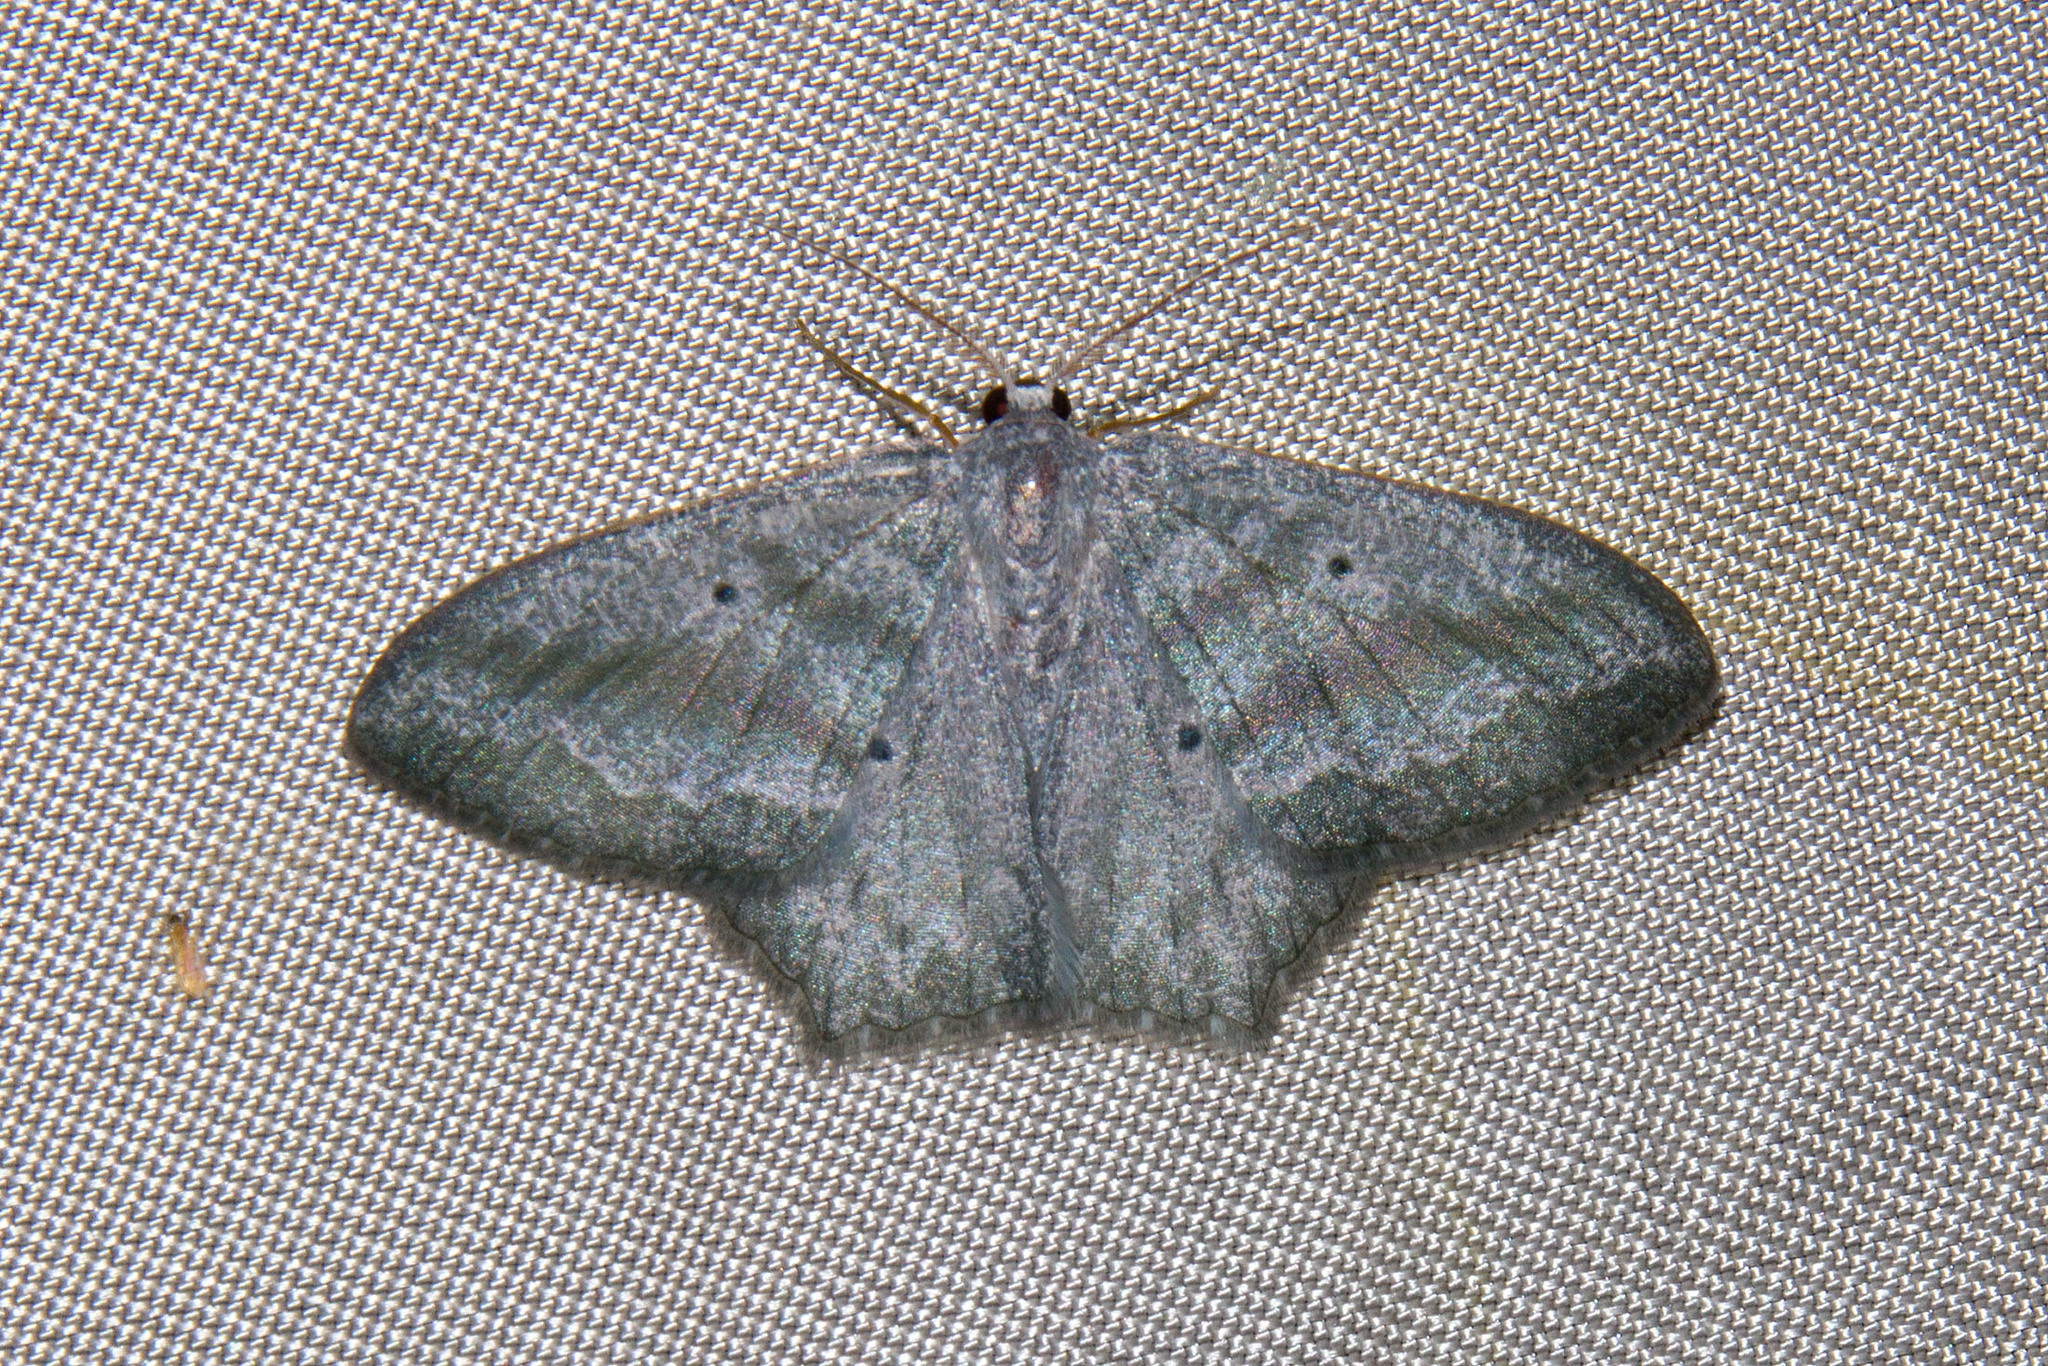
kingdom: Animalia
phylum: Arthropoda
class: Insecta
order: Lepidoptera
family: Geometridae
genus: Maxates
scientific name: Maxates spumata
